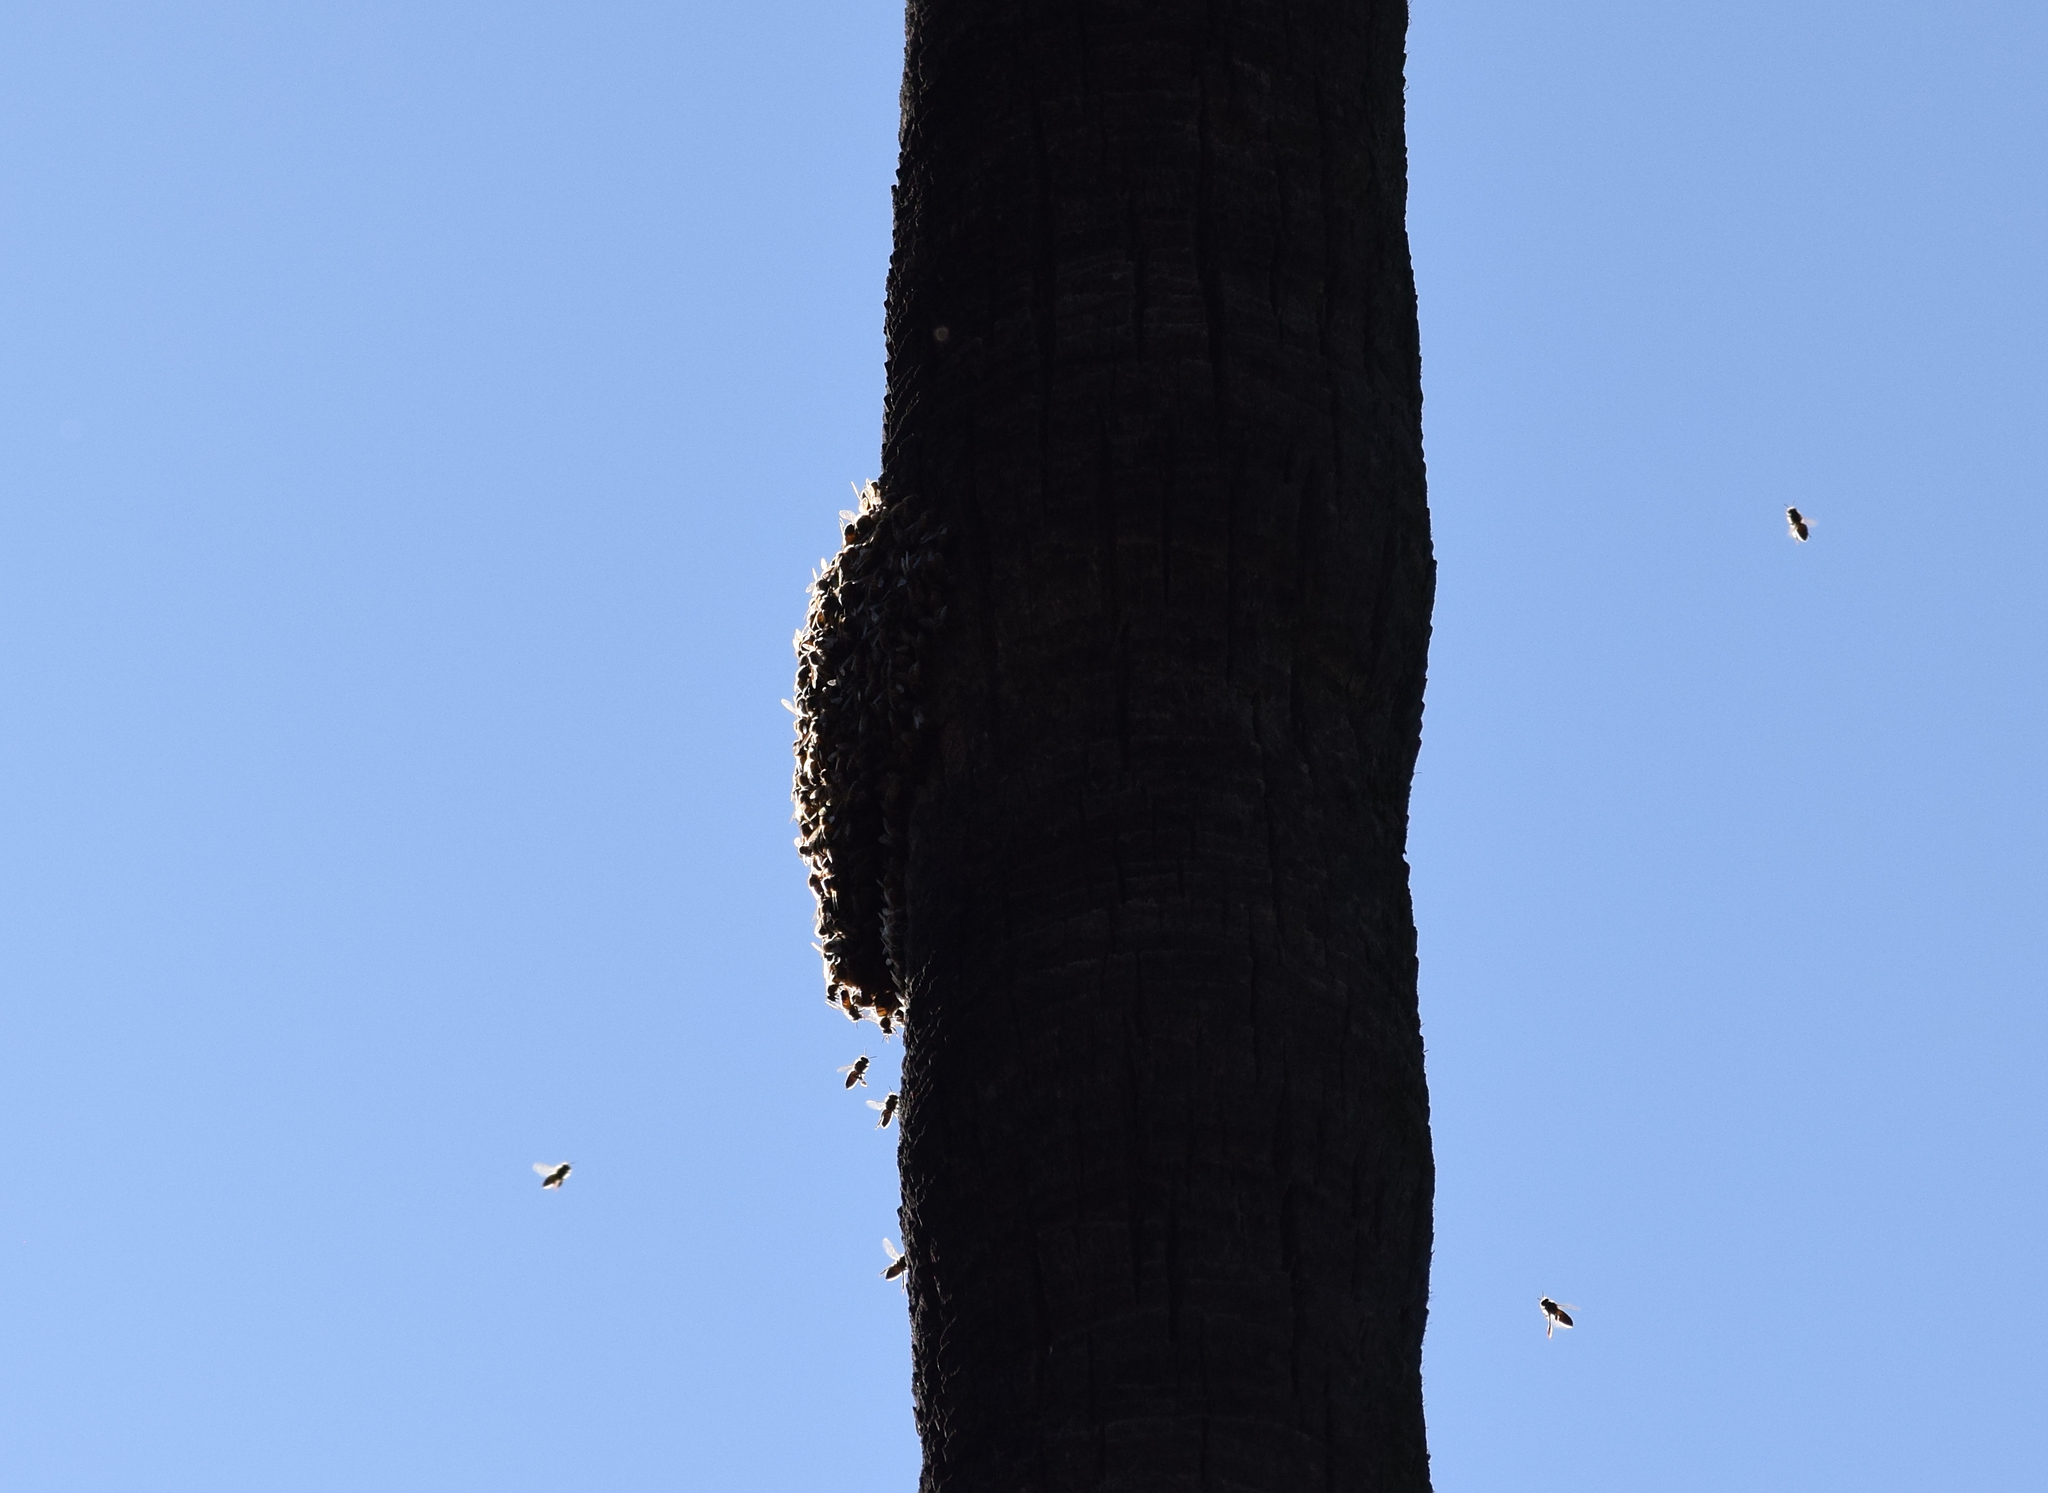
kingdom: Animalia
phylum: Arthropoda
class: Insecta
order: Hymenoptera
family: Apidae
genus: Apis
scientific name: Apis mellifera
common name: Honey bee
